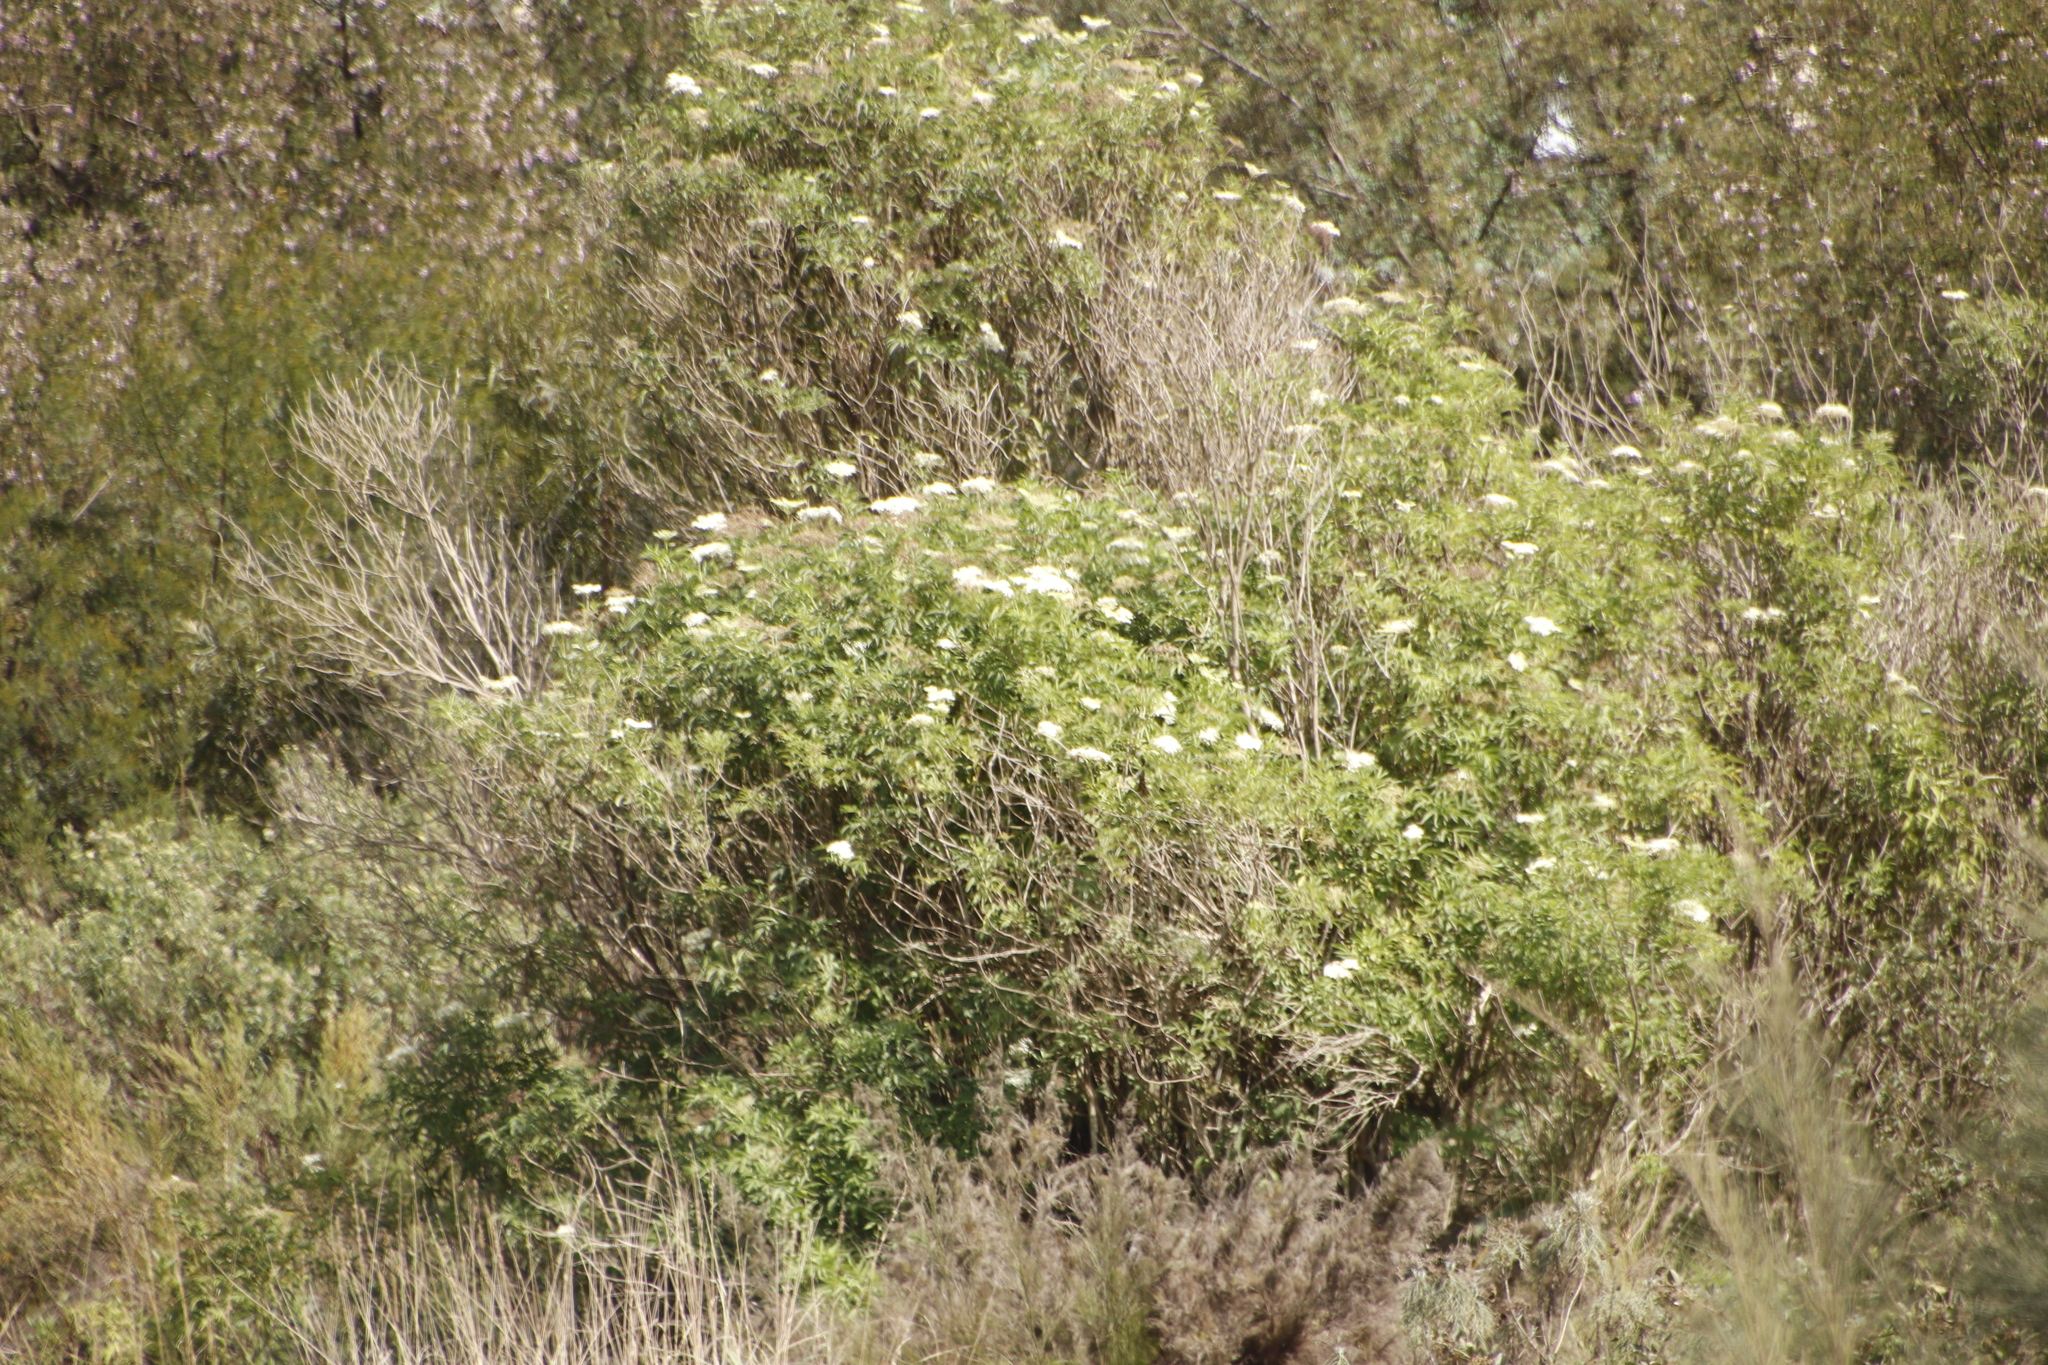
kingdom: Plantae
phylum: Tracheophyta
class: Magnoliopsida
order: Dipsacales
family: Viburnaceae
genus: Sambucus
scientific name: Sambucus nigra
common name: Elder
